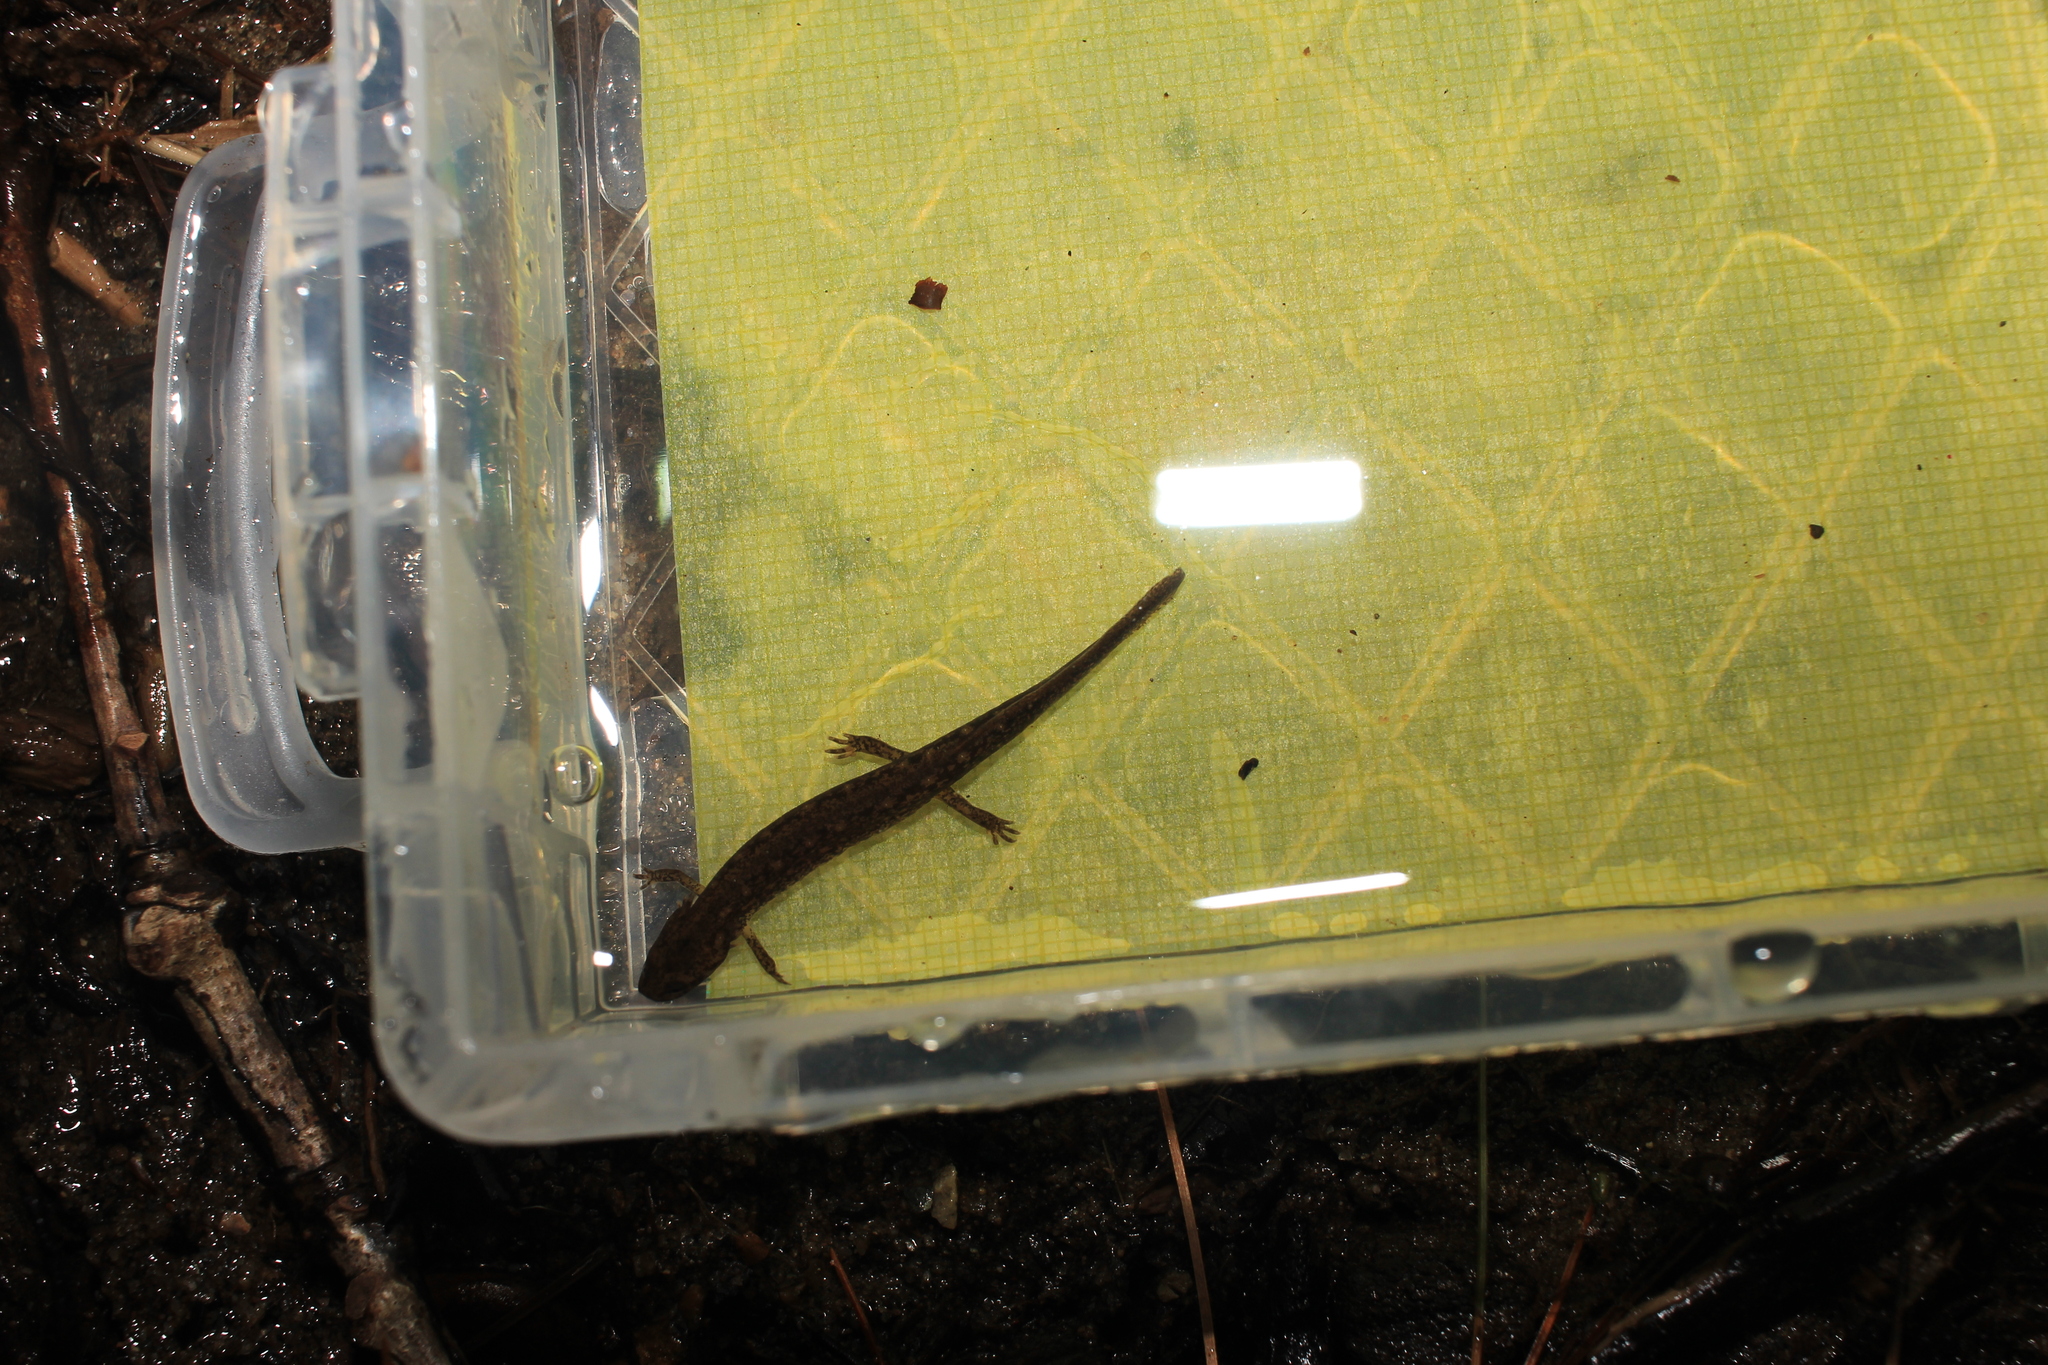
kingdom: Animalia
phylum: Chordata
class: Amphibia
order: Caudata
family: Plethodontidae
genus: Eurycea
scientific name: Eurycea bislineata
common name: Northern two-lined salamander
